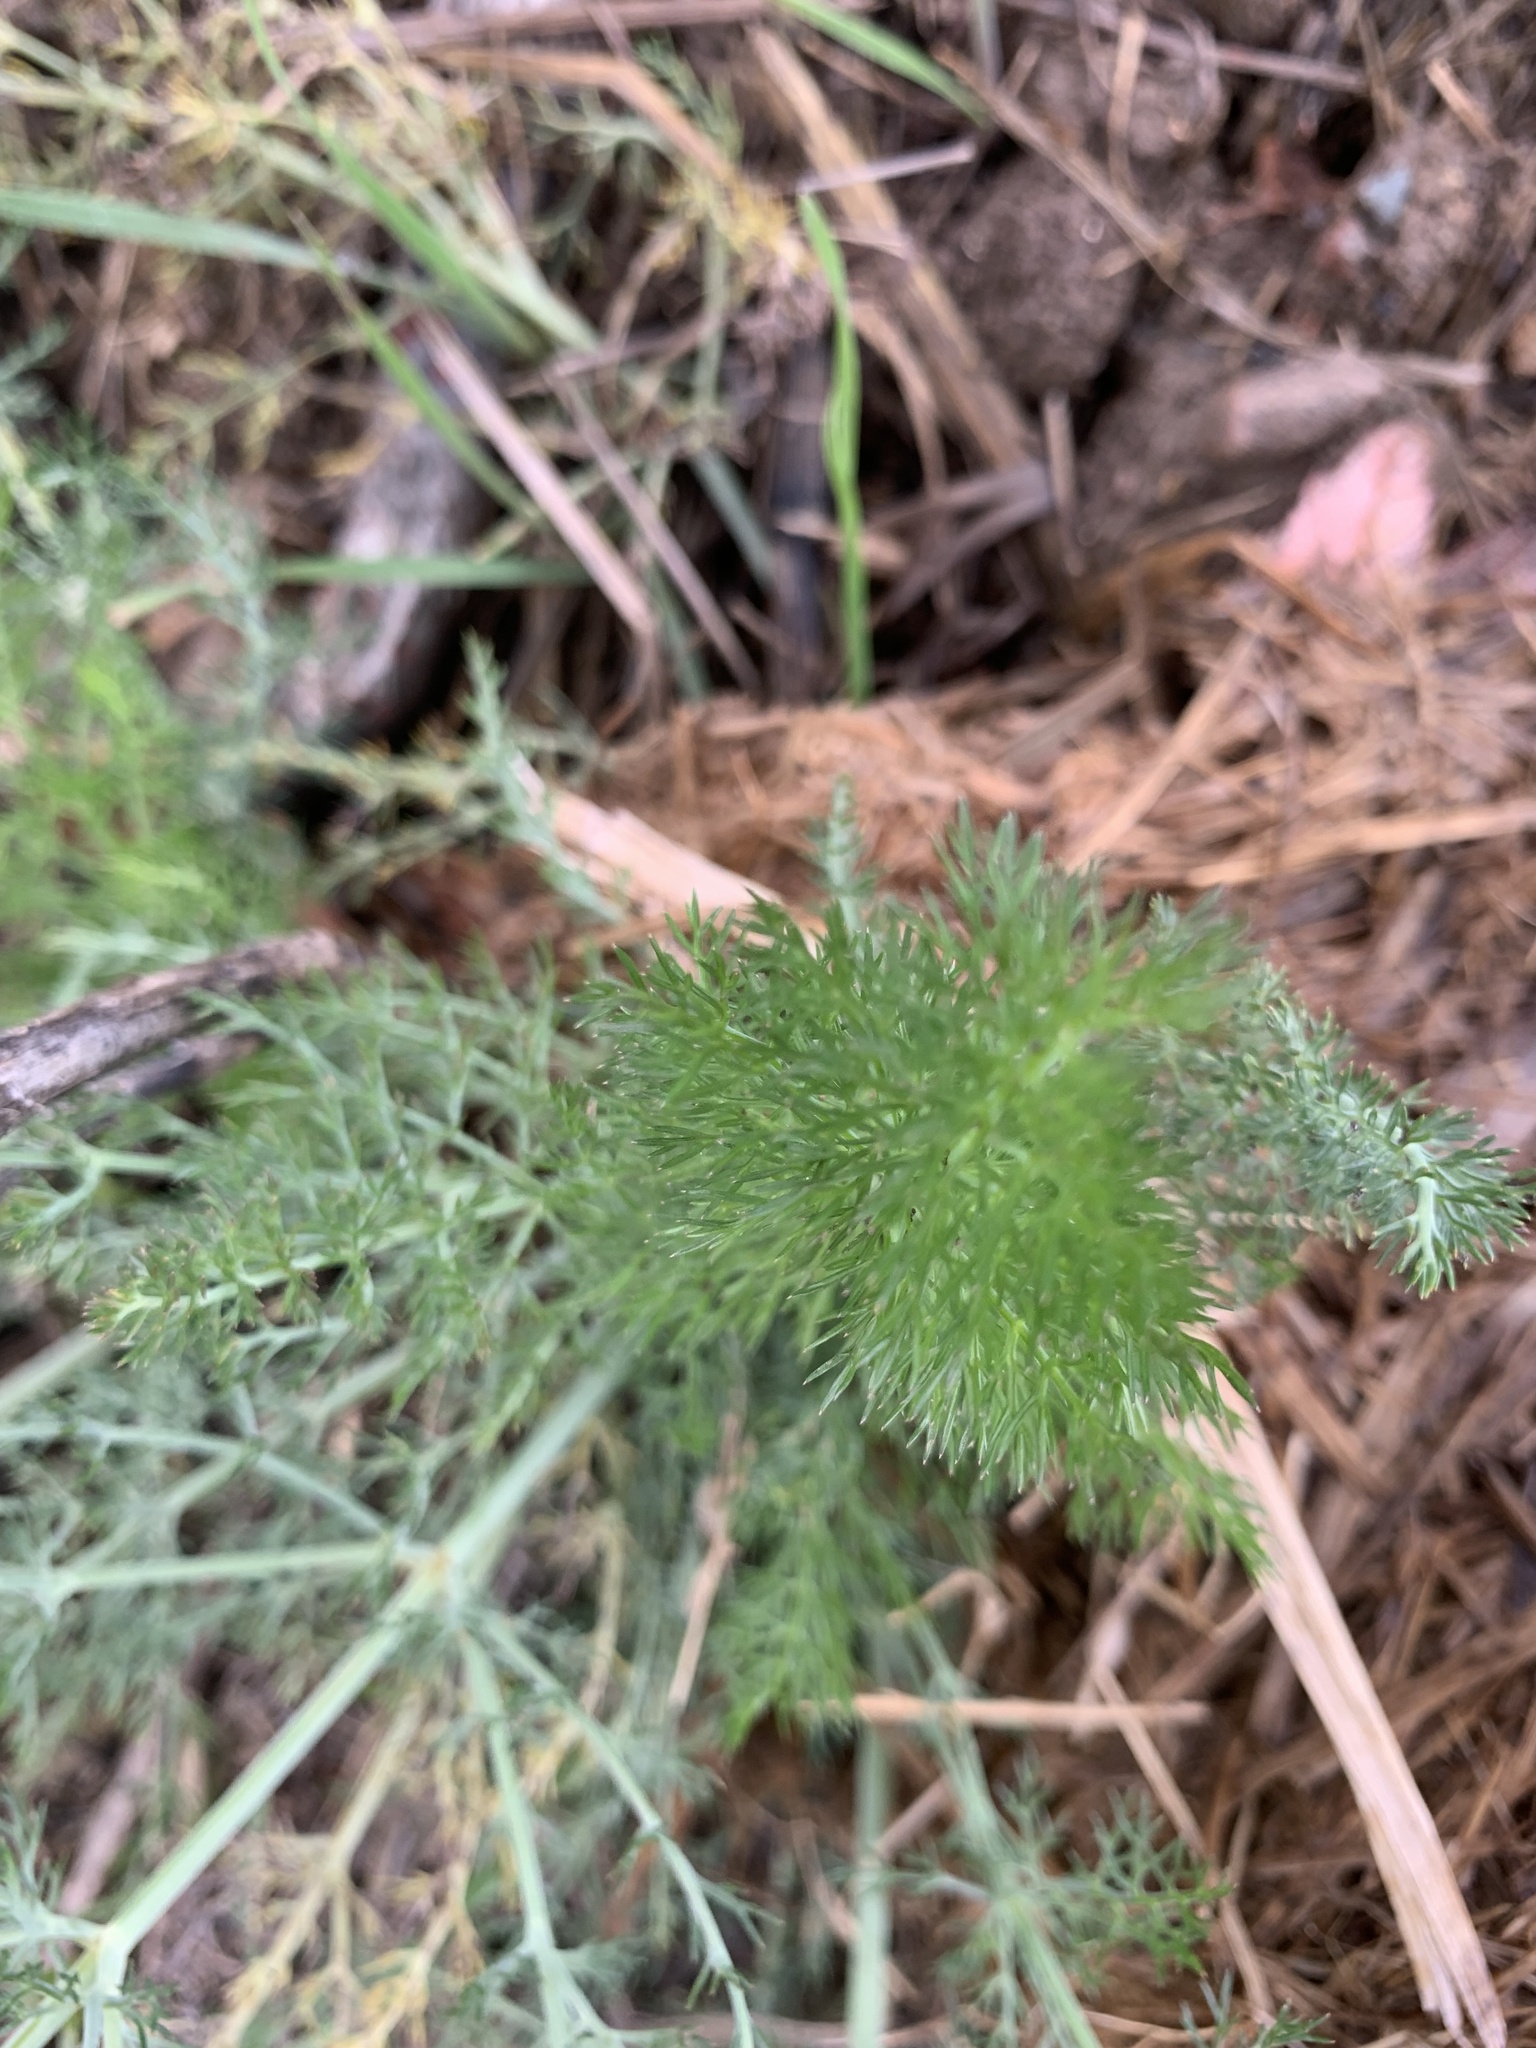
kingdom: Plantae
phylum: Tracheophyta
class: Magnoliopsida
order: Apiales
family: Apiaceae
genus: Foeniculum
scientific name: Foeniculum vulgare
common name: Fennel
